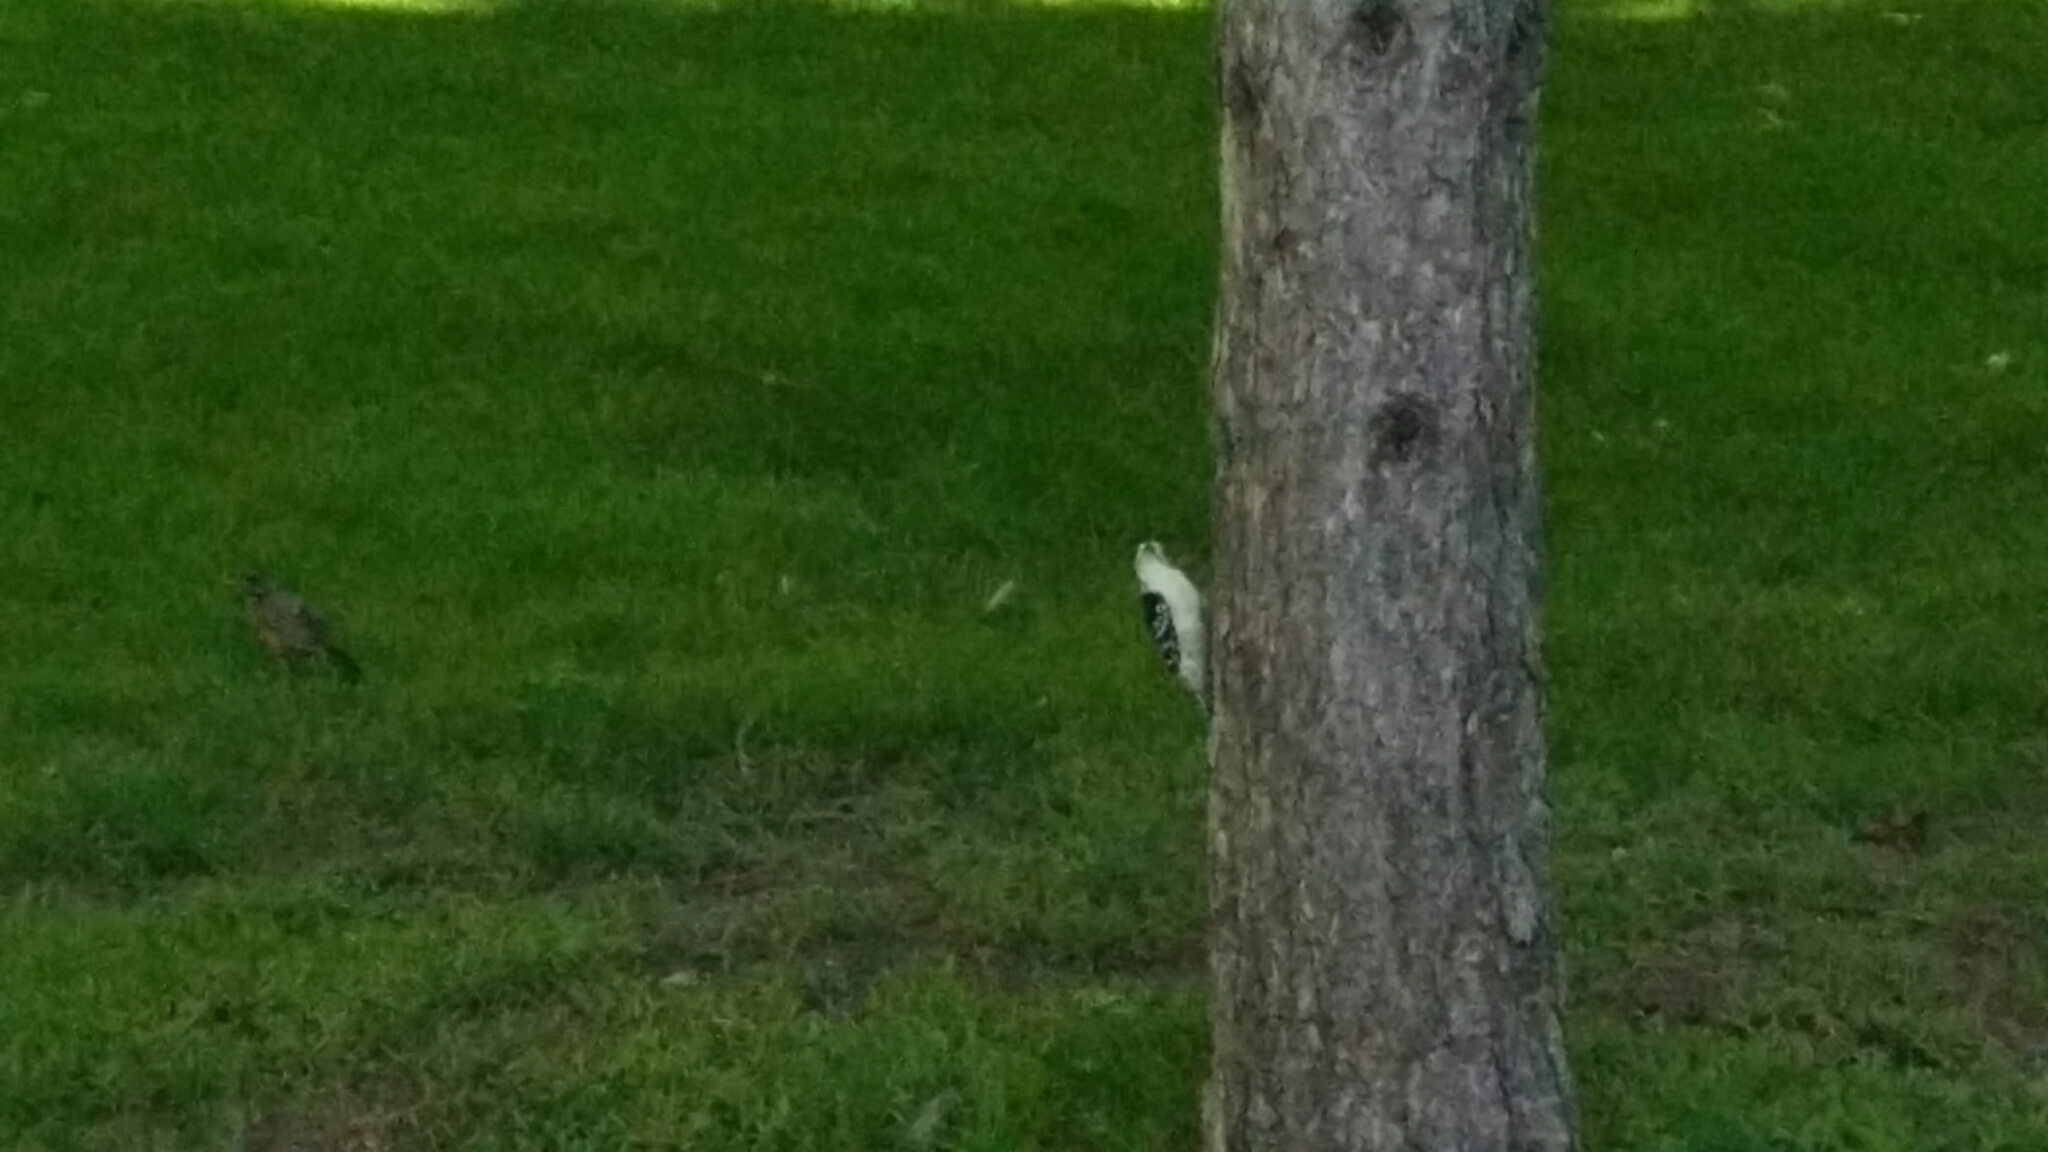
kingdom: Animalia
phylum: Chordata
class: Aves
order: Piciformes
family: Picidae
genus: Dryobates
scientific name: Dryobates pubescens
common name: Downy woodpecker
